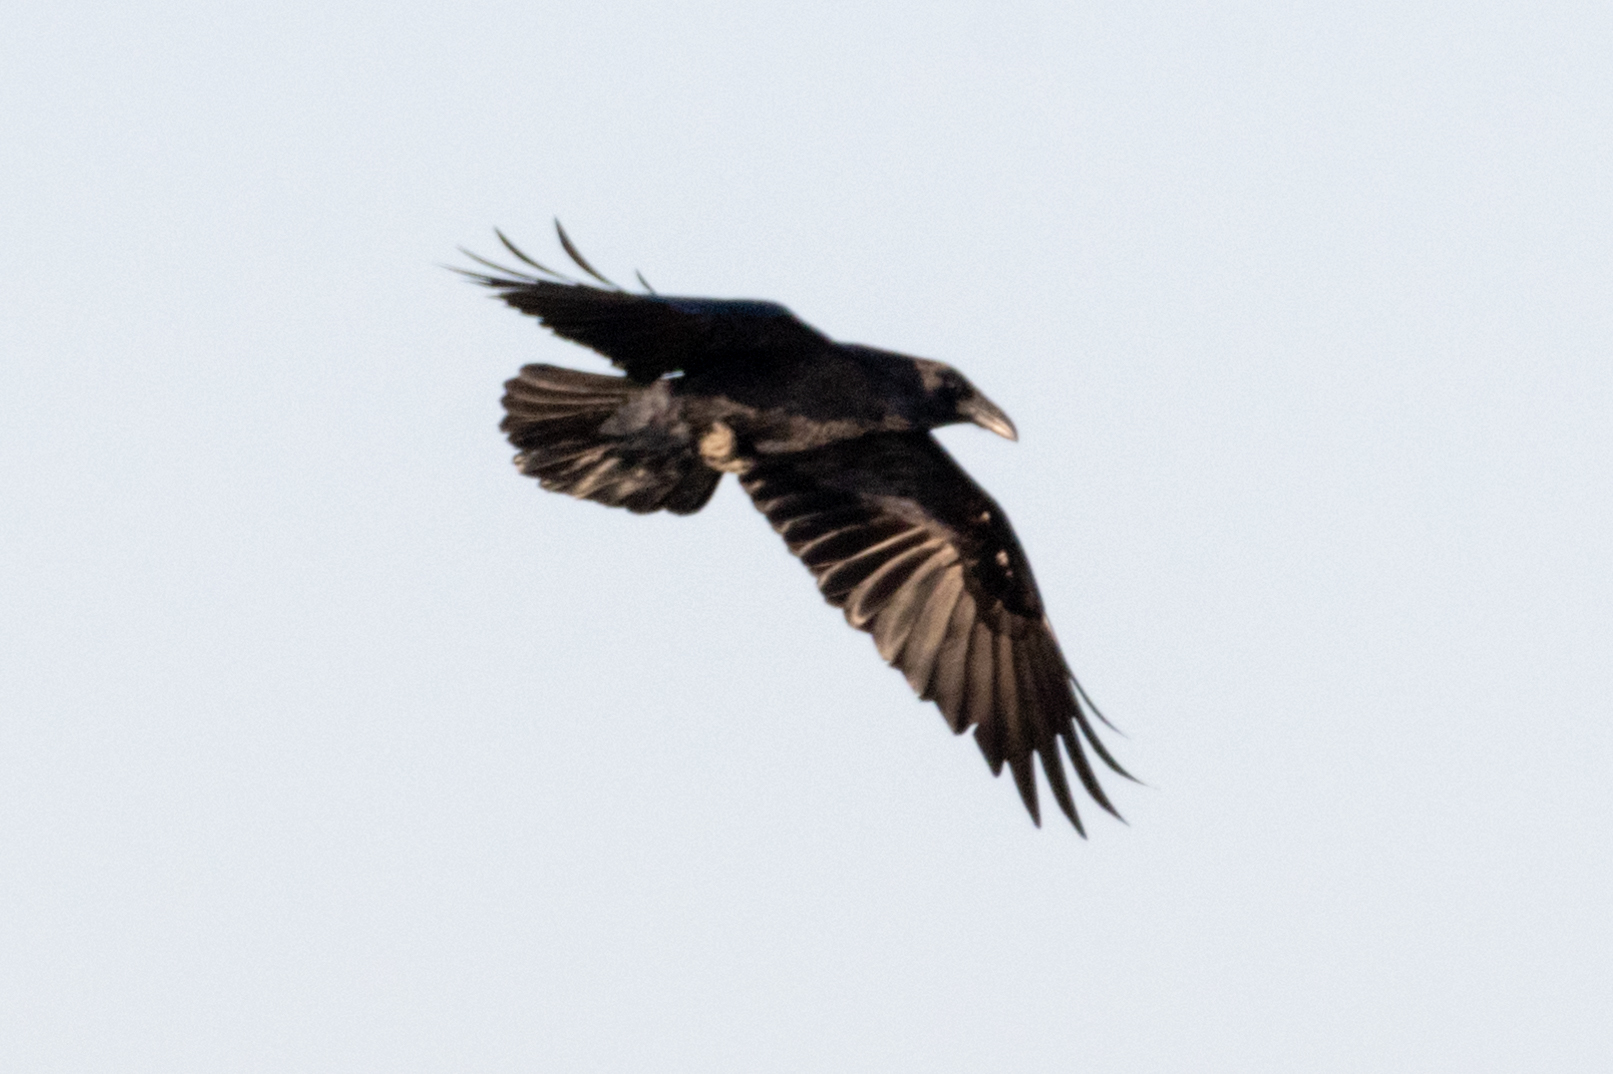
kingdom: Animalia
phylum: Chordata
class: Aves
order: Passeriformes
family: Corvidae
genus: Corvus
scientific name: Corvus corax
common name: Common raven
